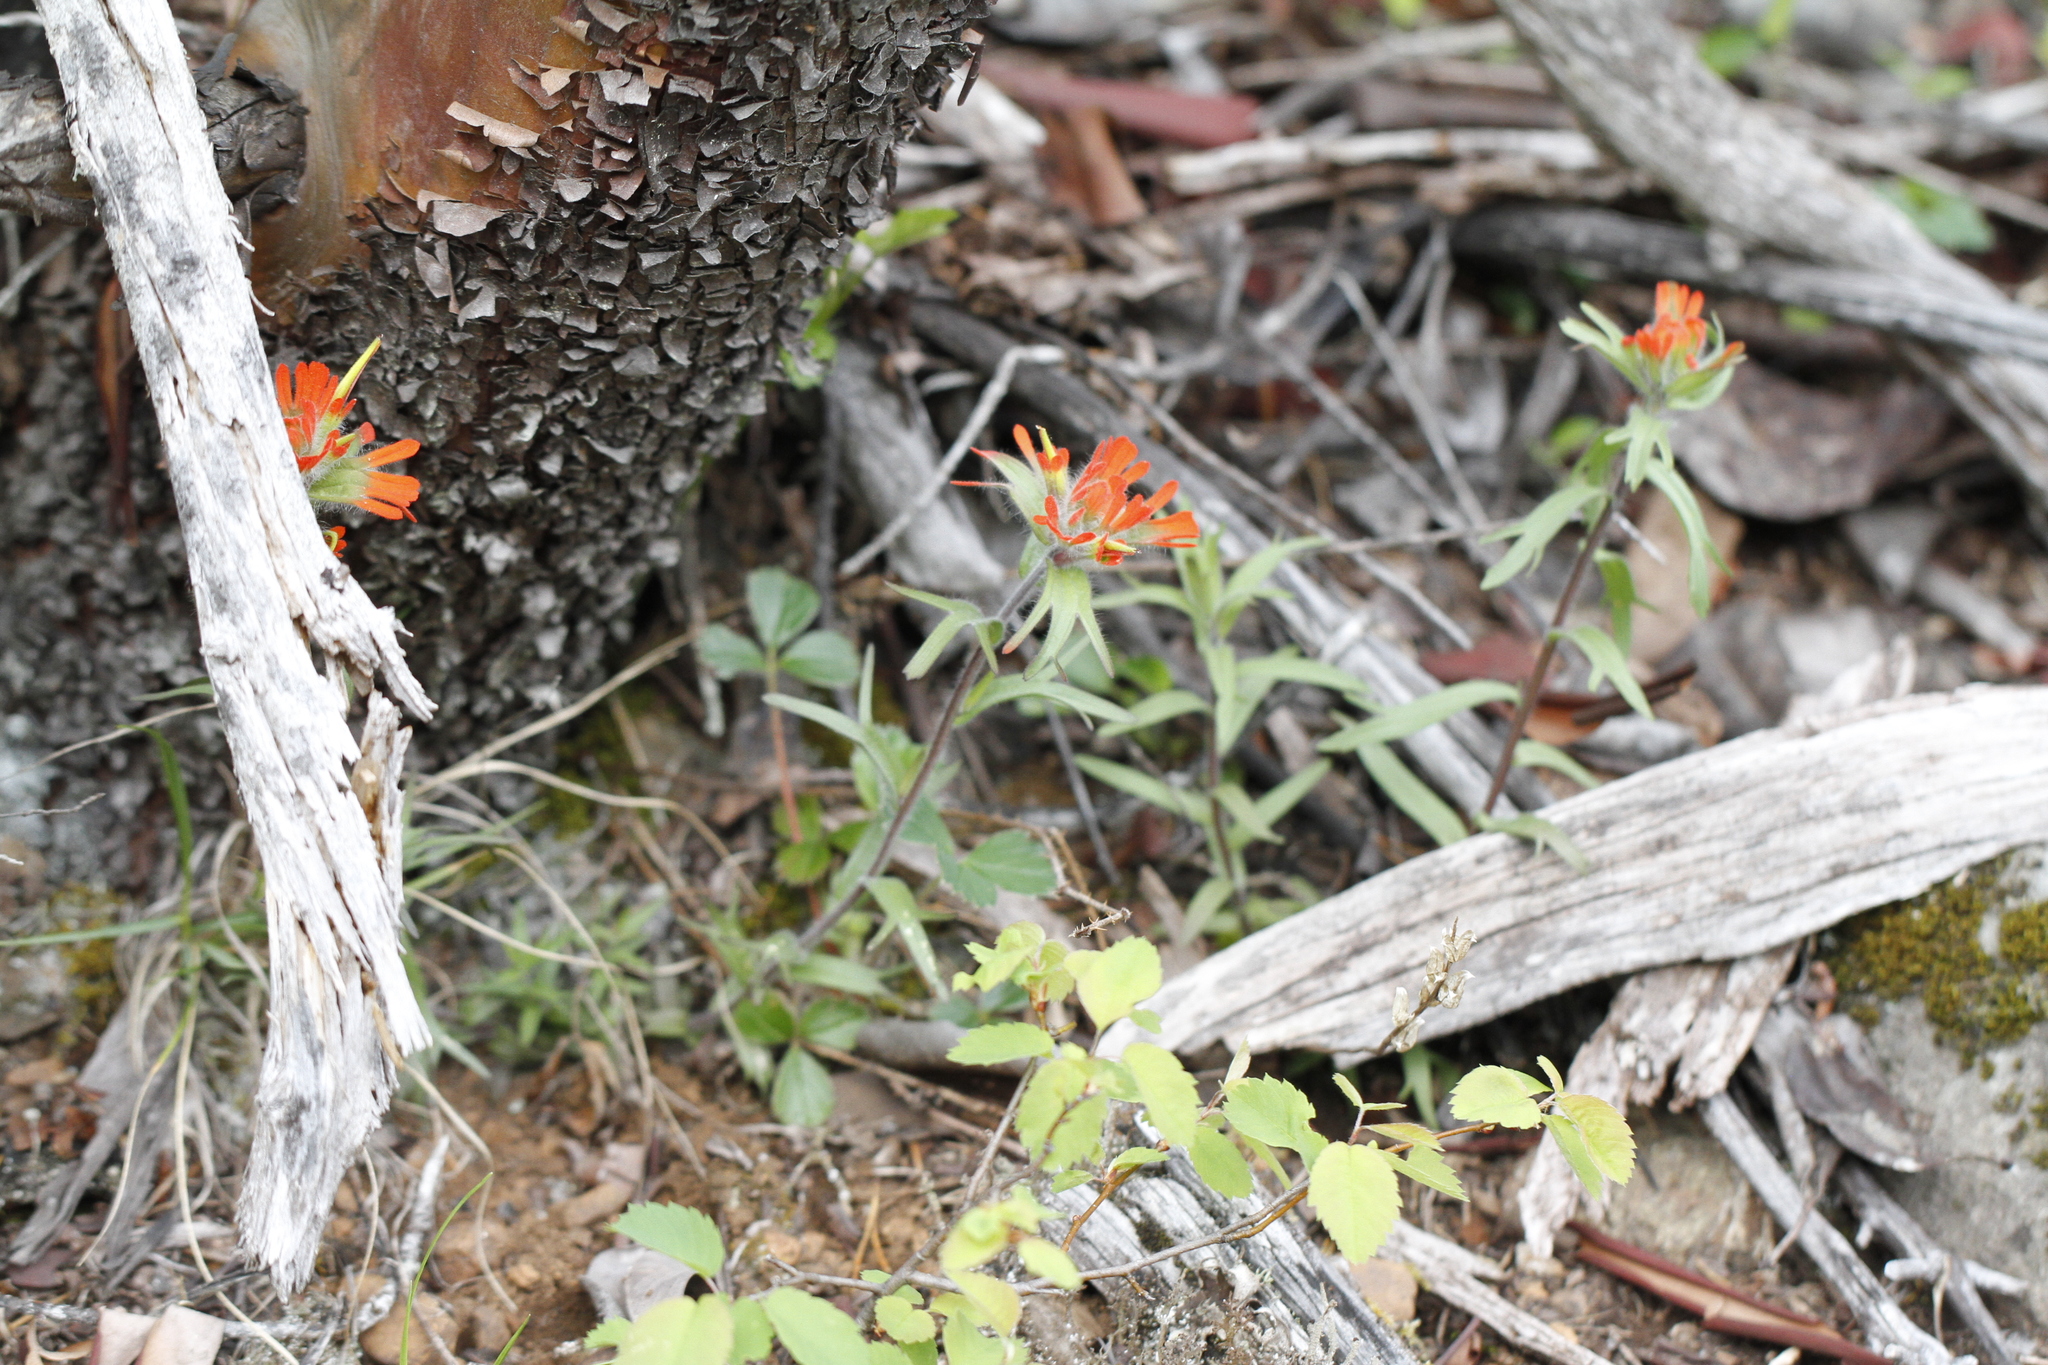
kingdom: Plantae
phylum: Tracheophyta
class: Magnoliopsida
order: Lamiales
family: Orobanchaceae
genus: Castilleja
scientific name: Castilleja hispida
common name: Bristly paintbrush
